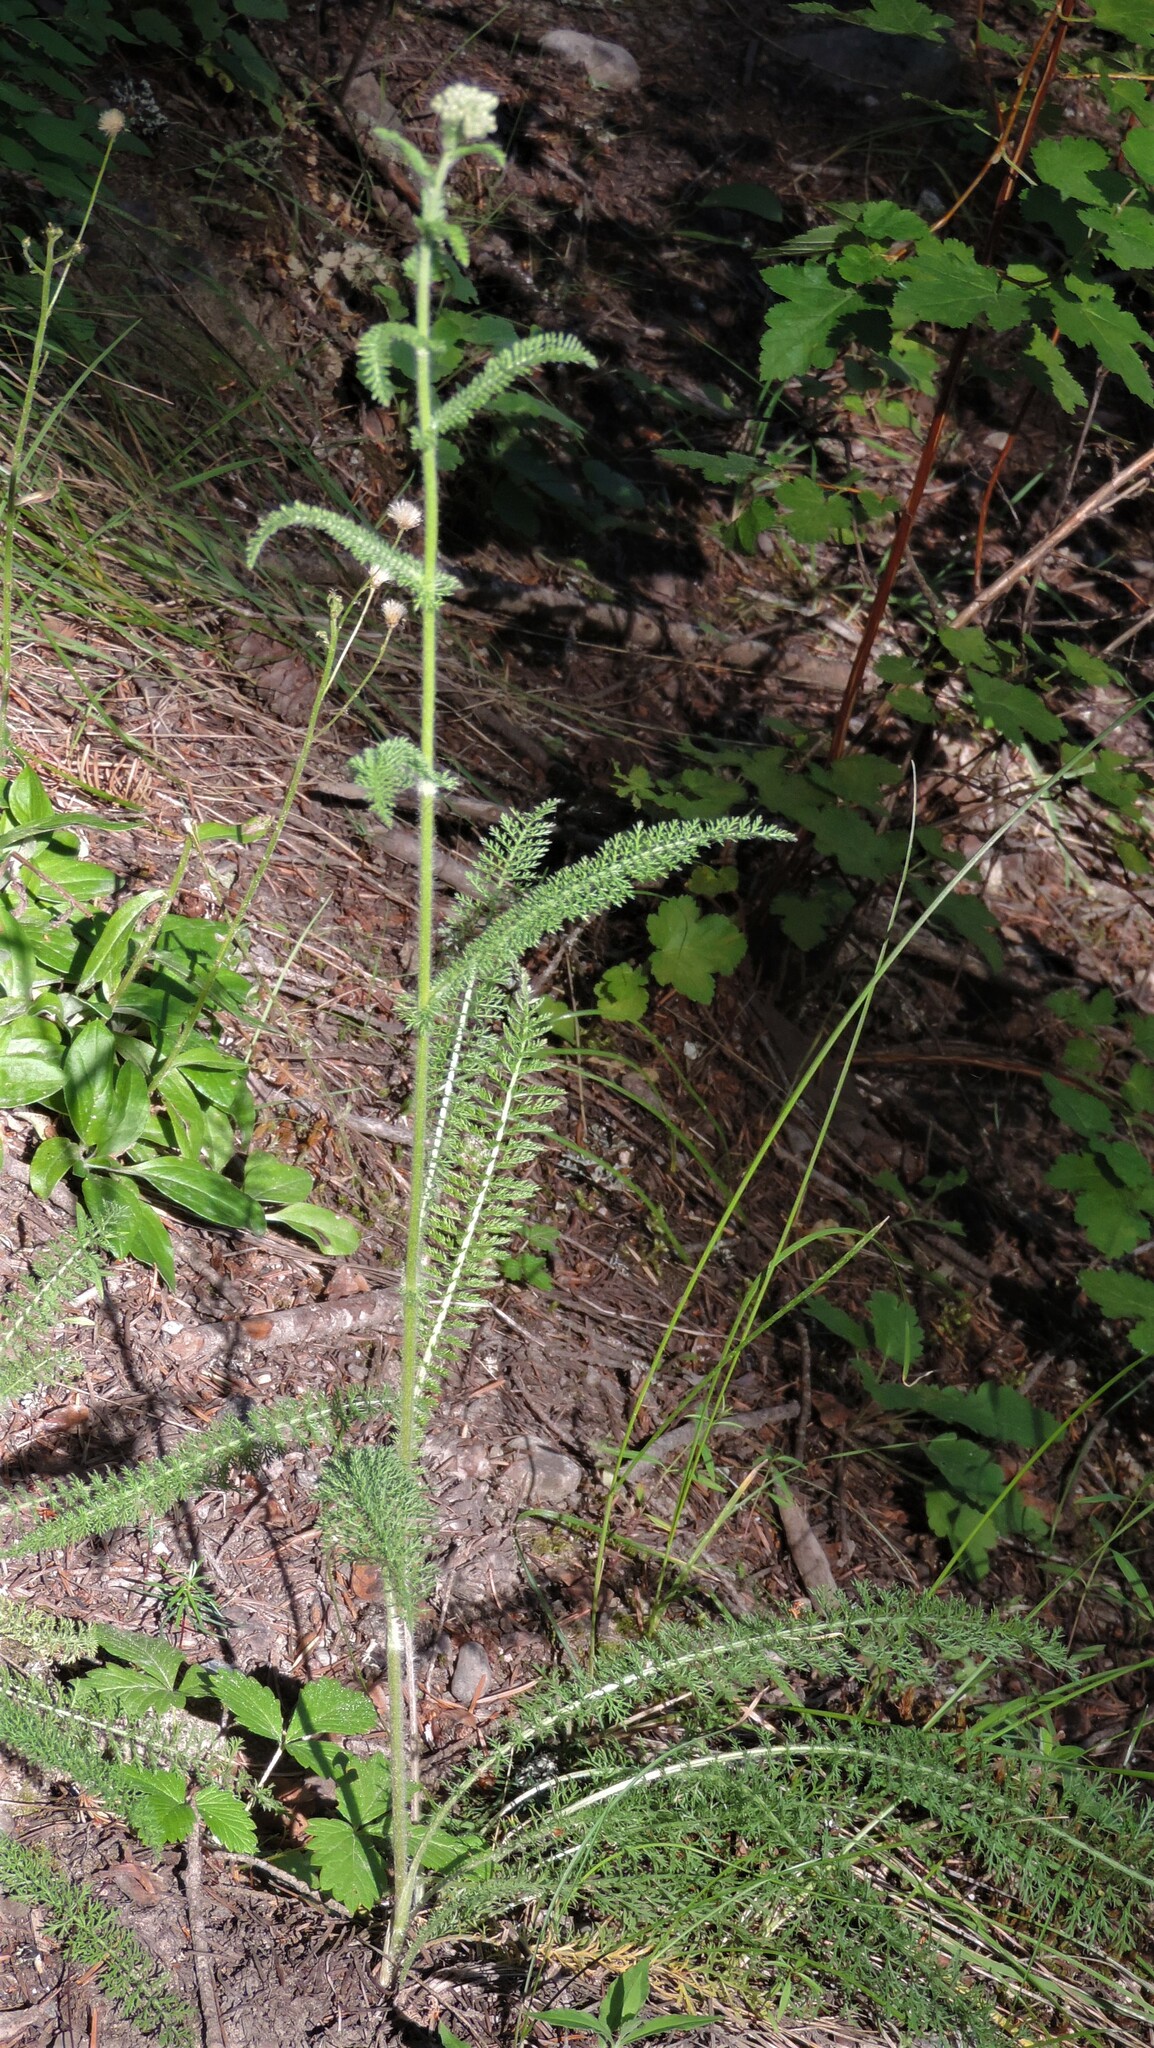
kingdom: Plantae
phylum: Tracheophyta
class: Magnoliopsida
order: Asterales
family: Asteraceae
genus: Achillea
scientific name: Achillea millefolium
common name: Yarrow
